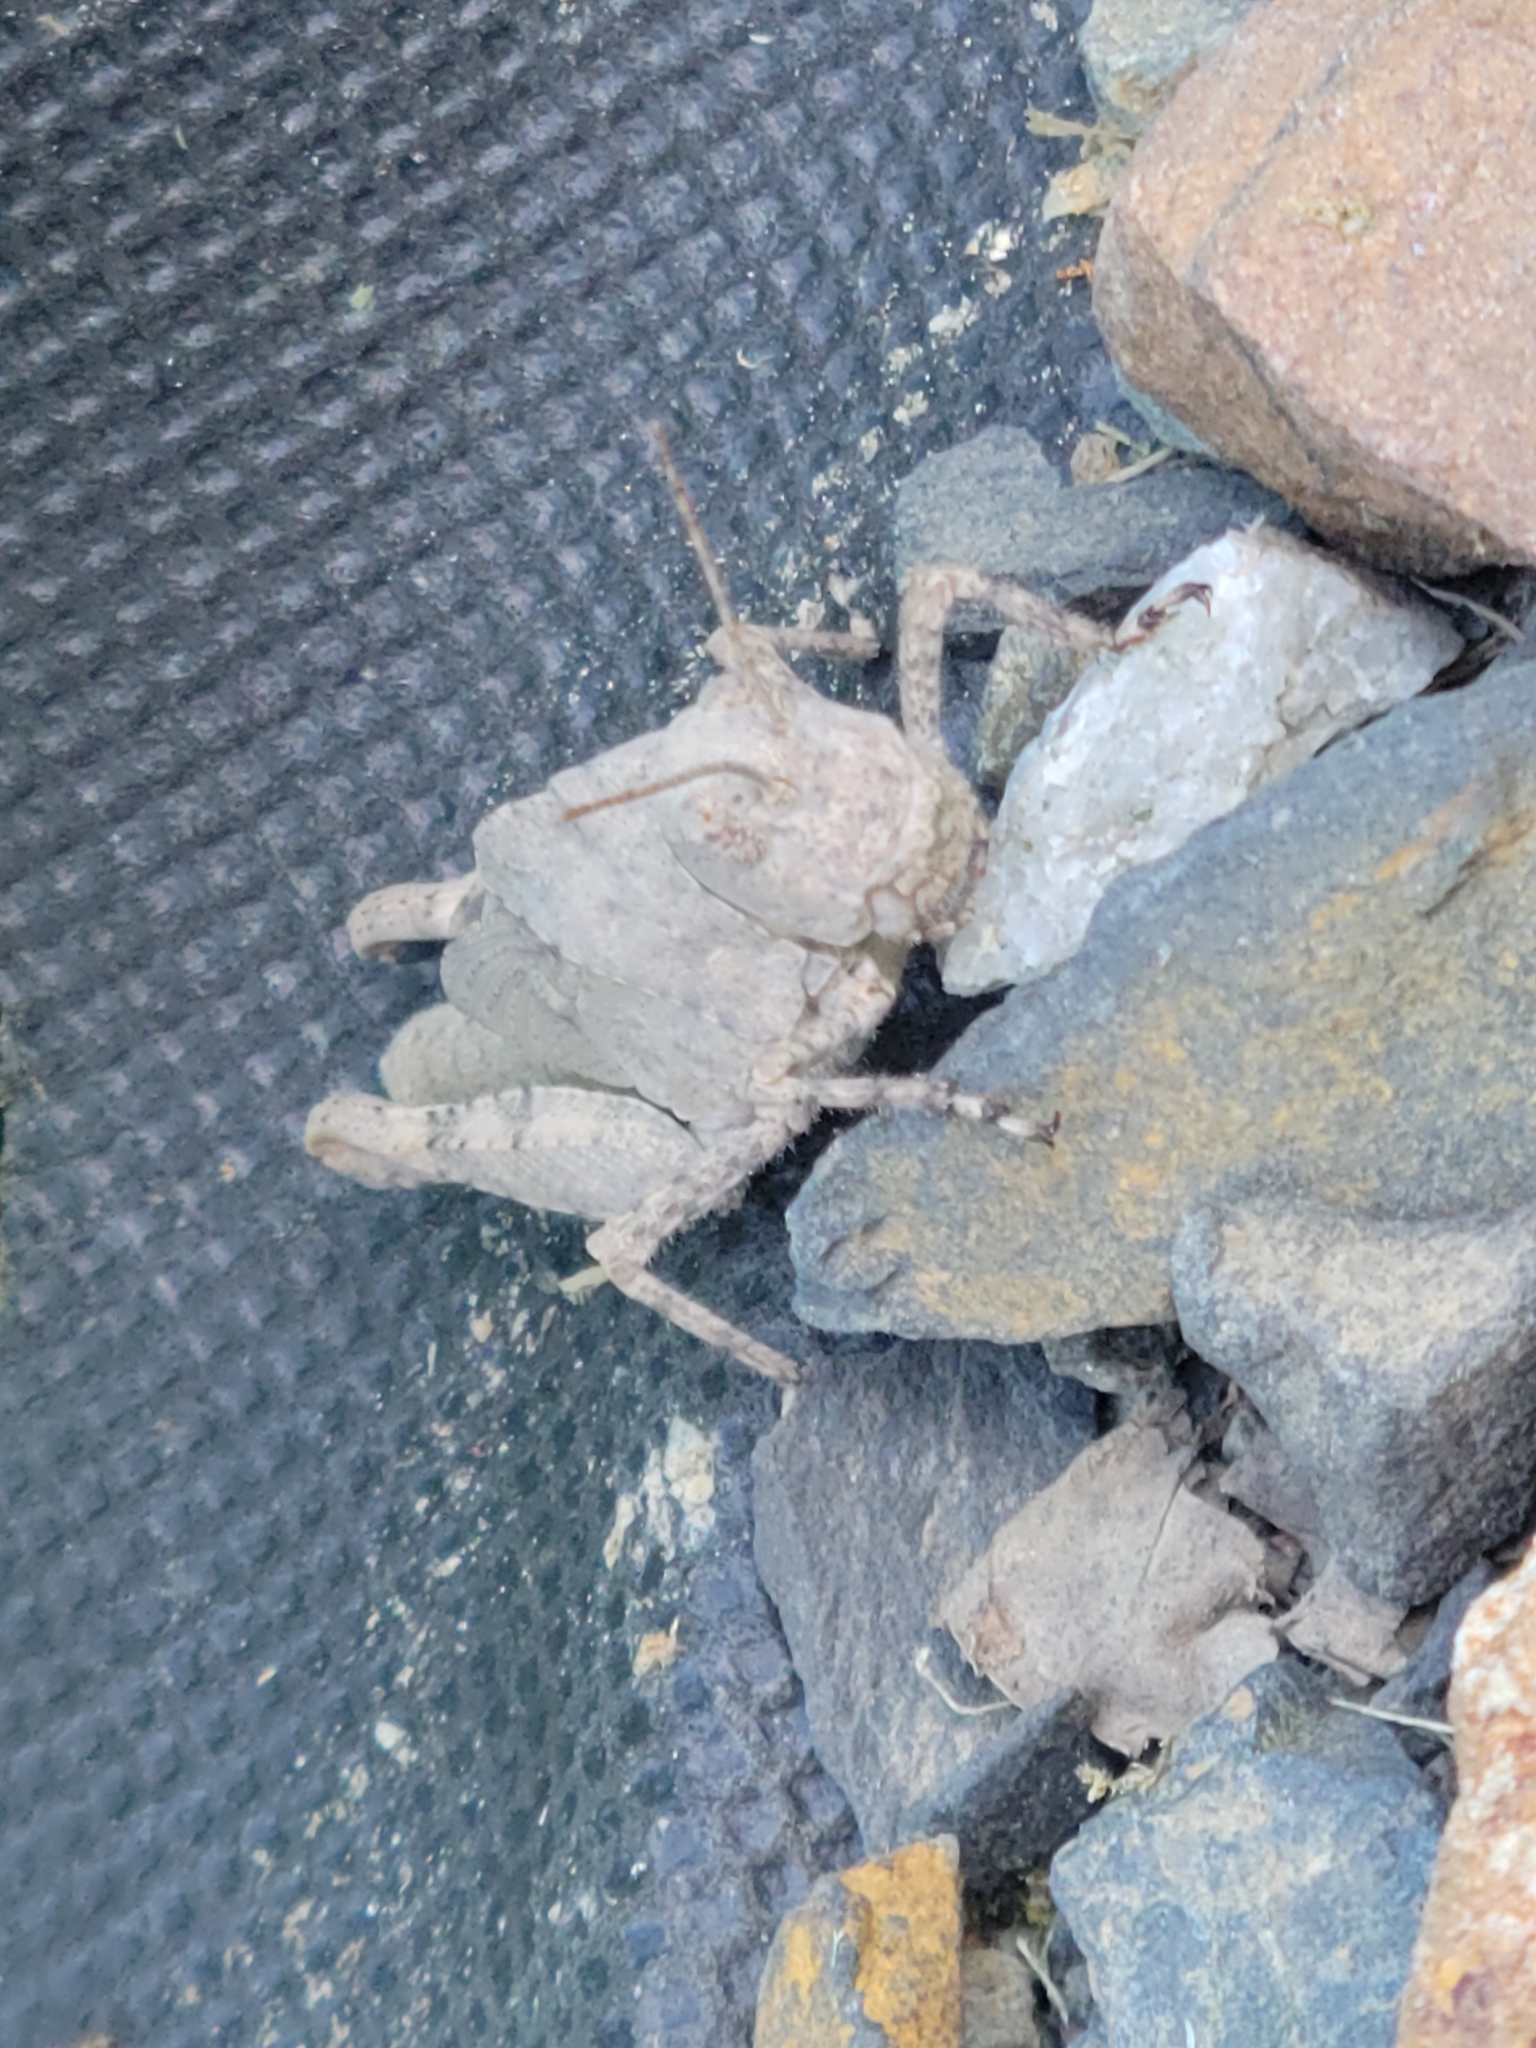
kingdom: Animalia
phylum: Arthropoda
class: Insecta
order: Orthoptera
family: Acrididae
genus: Dissosteira
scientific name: Dissosteira carolina
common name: Carolina grasshopper
